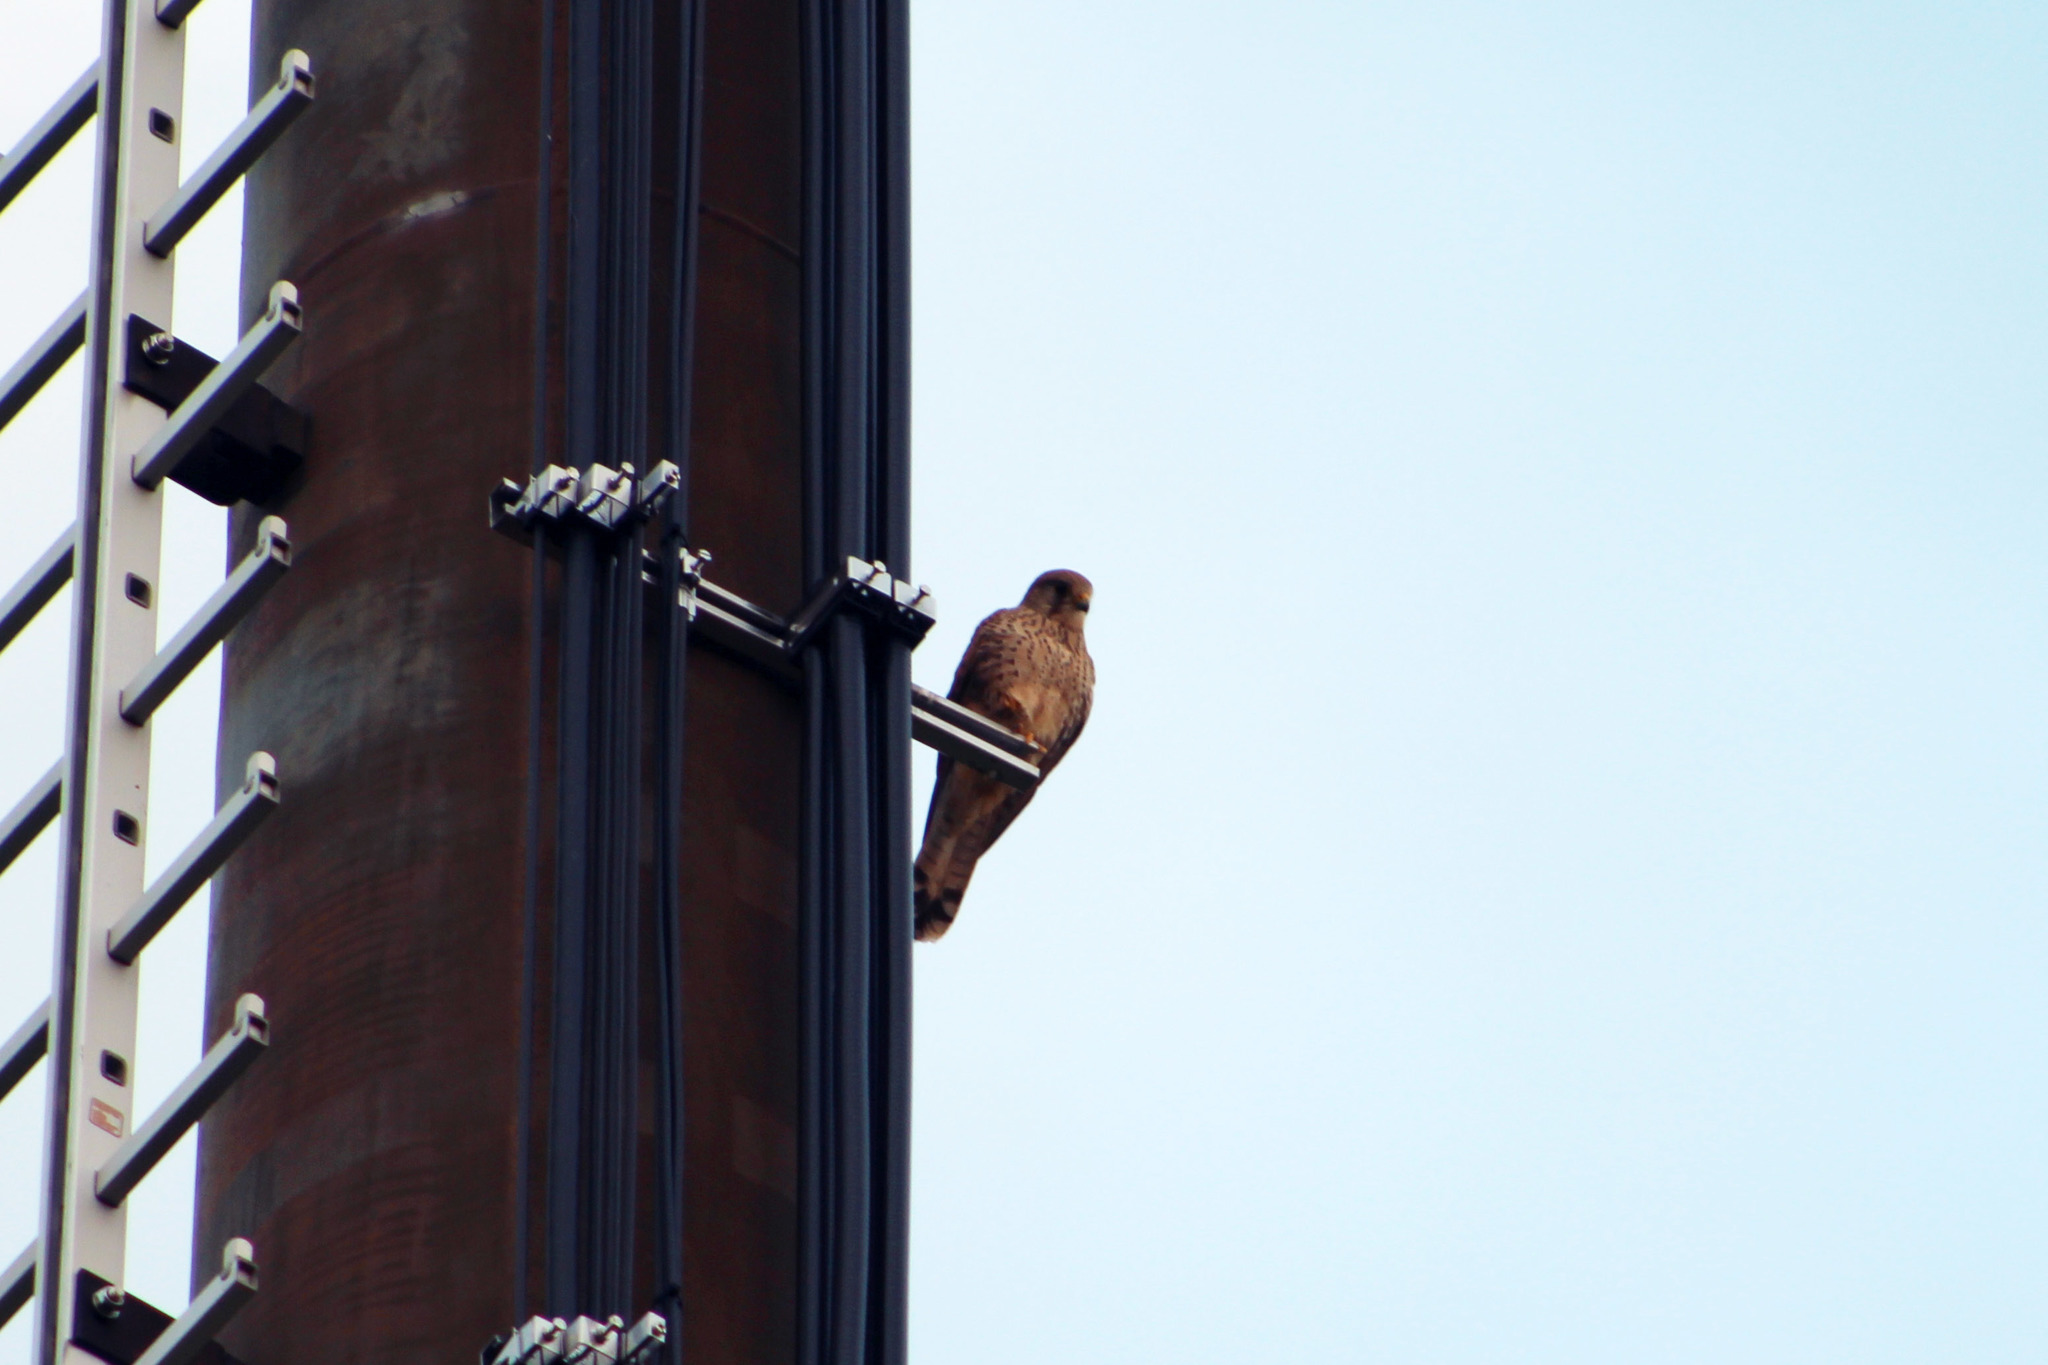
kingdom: Animalia
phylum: Chordata
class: Aves
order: Falconiformes
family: Falconidae
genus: Falco
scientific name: Falco tinnunculus
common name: Common kestrel
